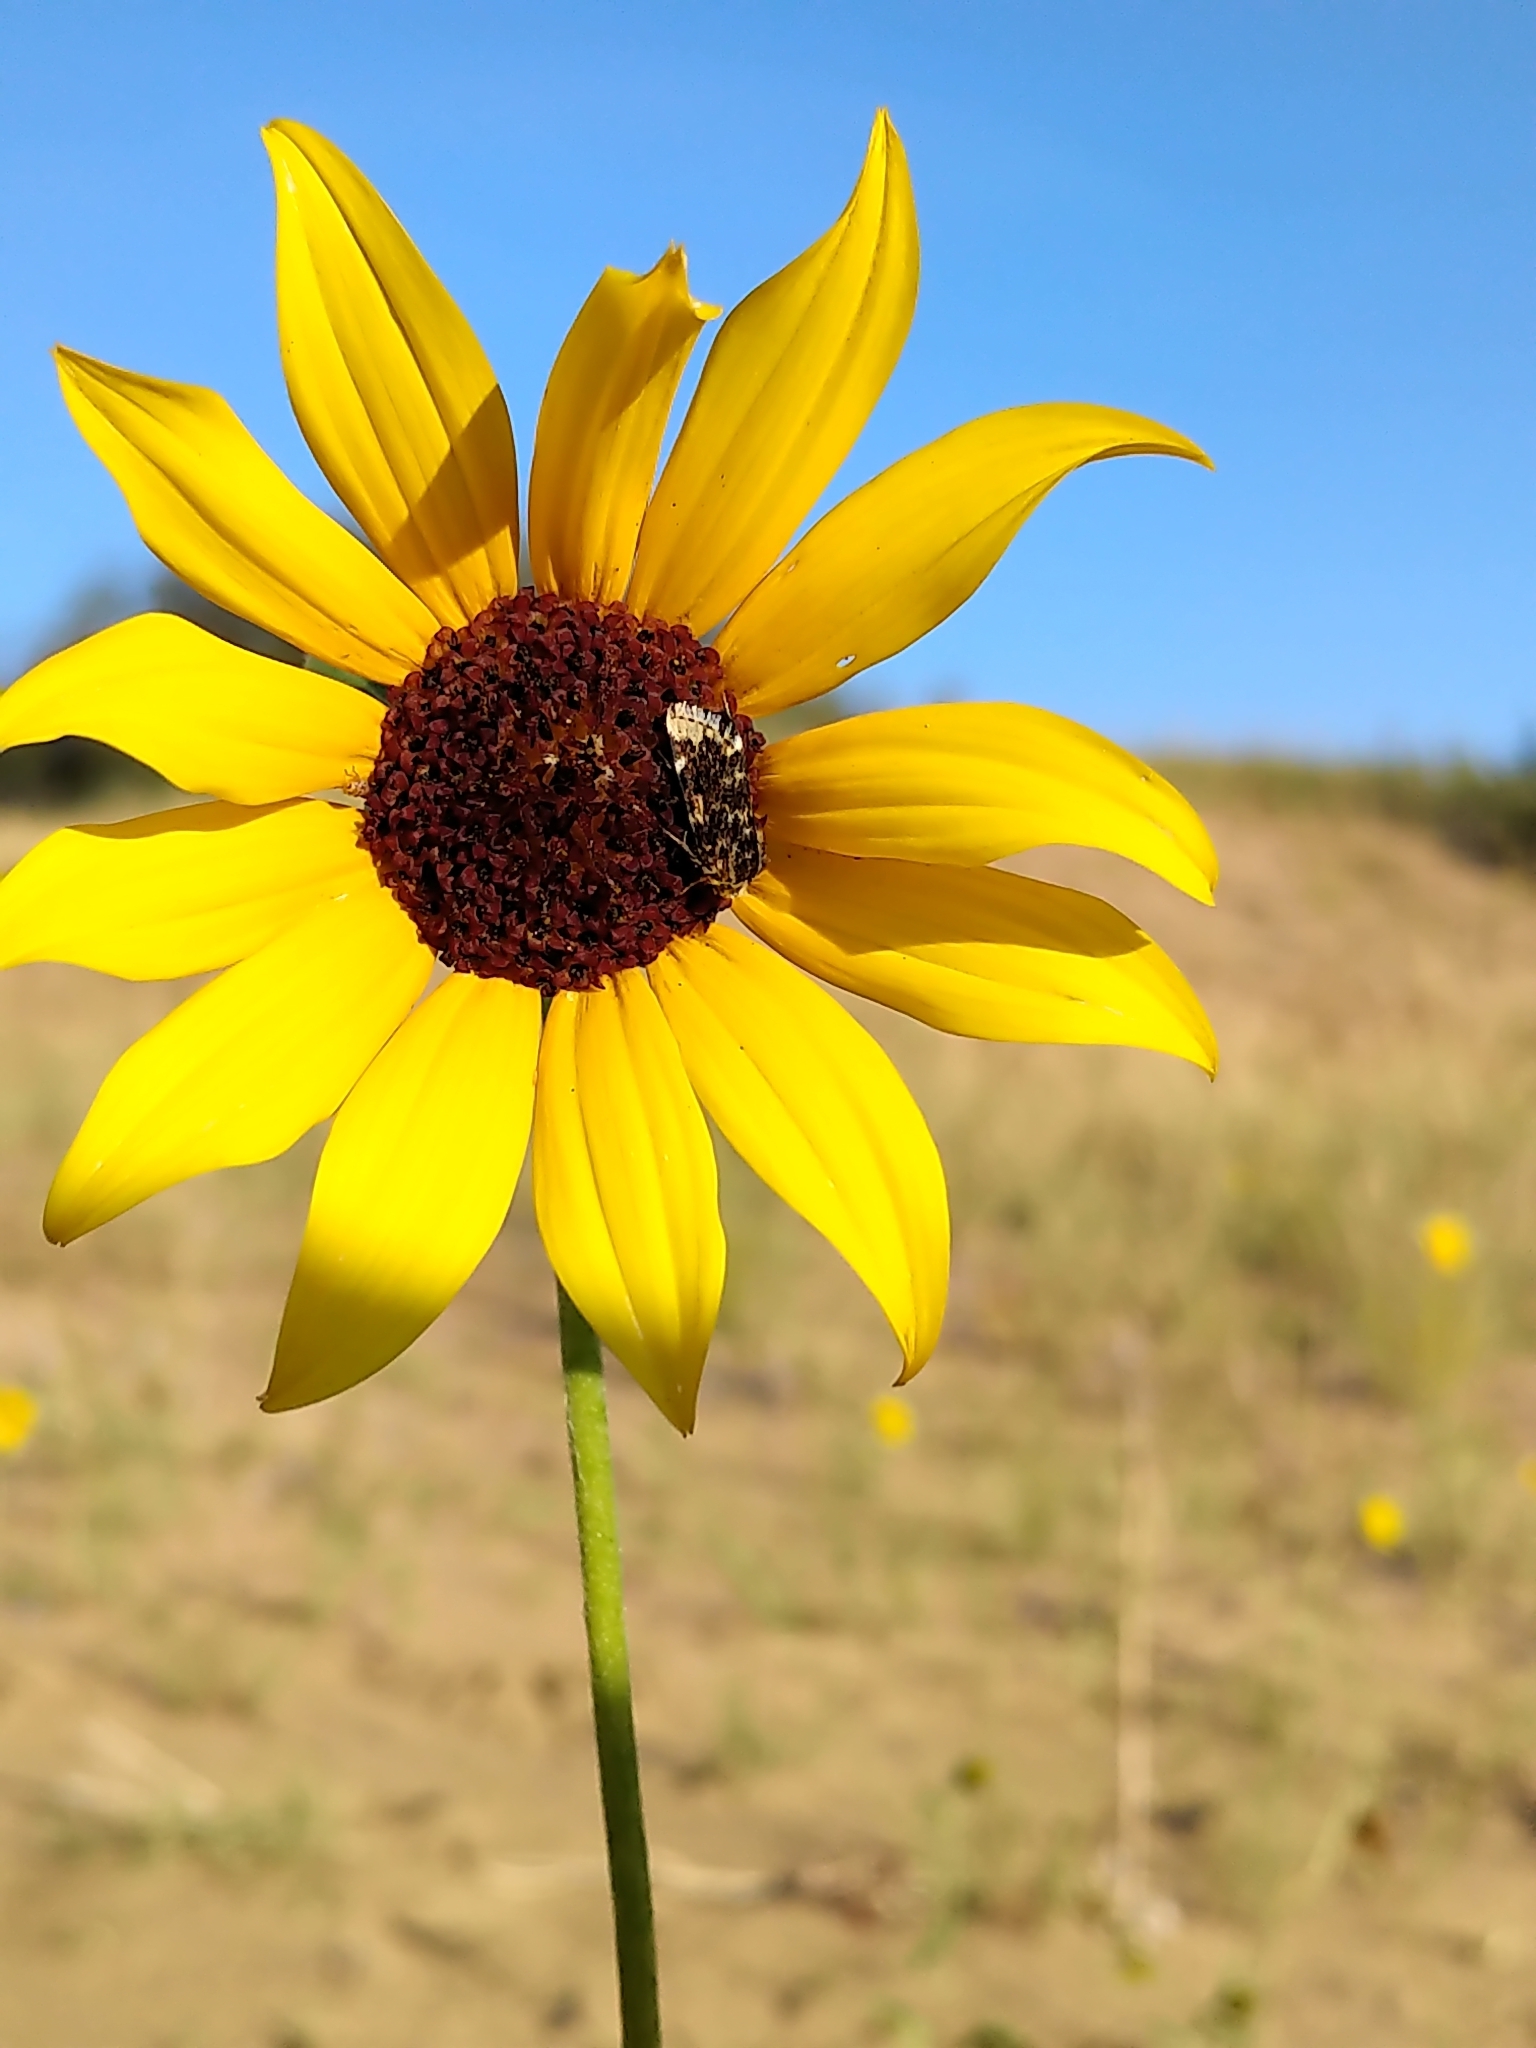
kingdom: Animalia
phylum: Arthropoda
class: Insecta
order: Lepidoptera
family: Noctuidae
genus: Schinia
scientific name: Schinia avemensis
